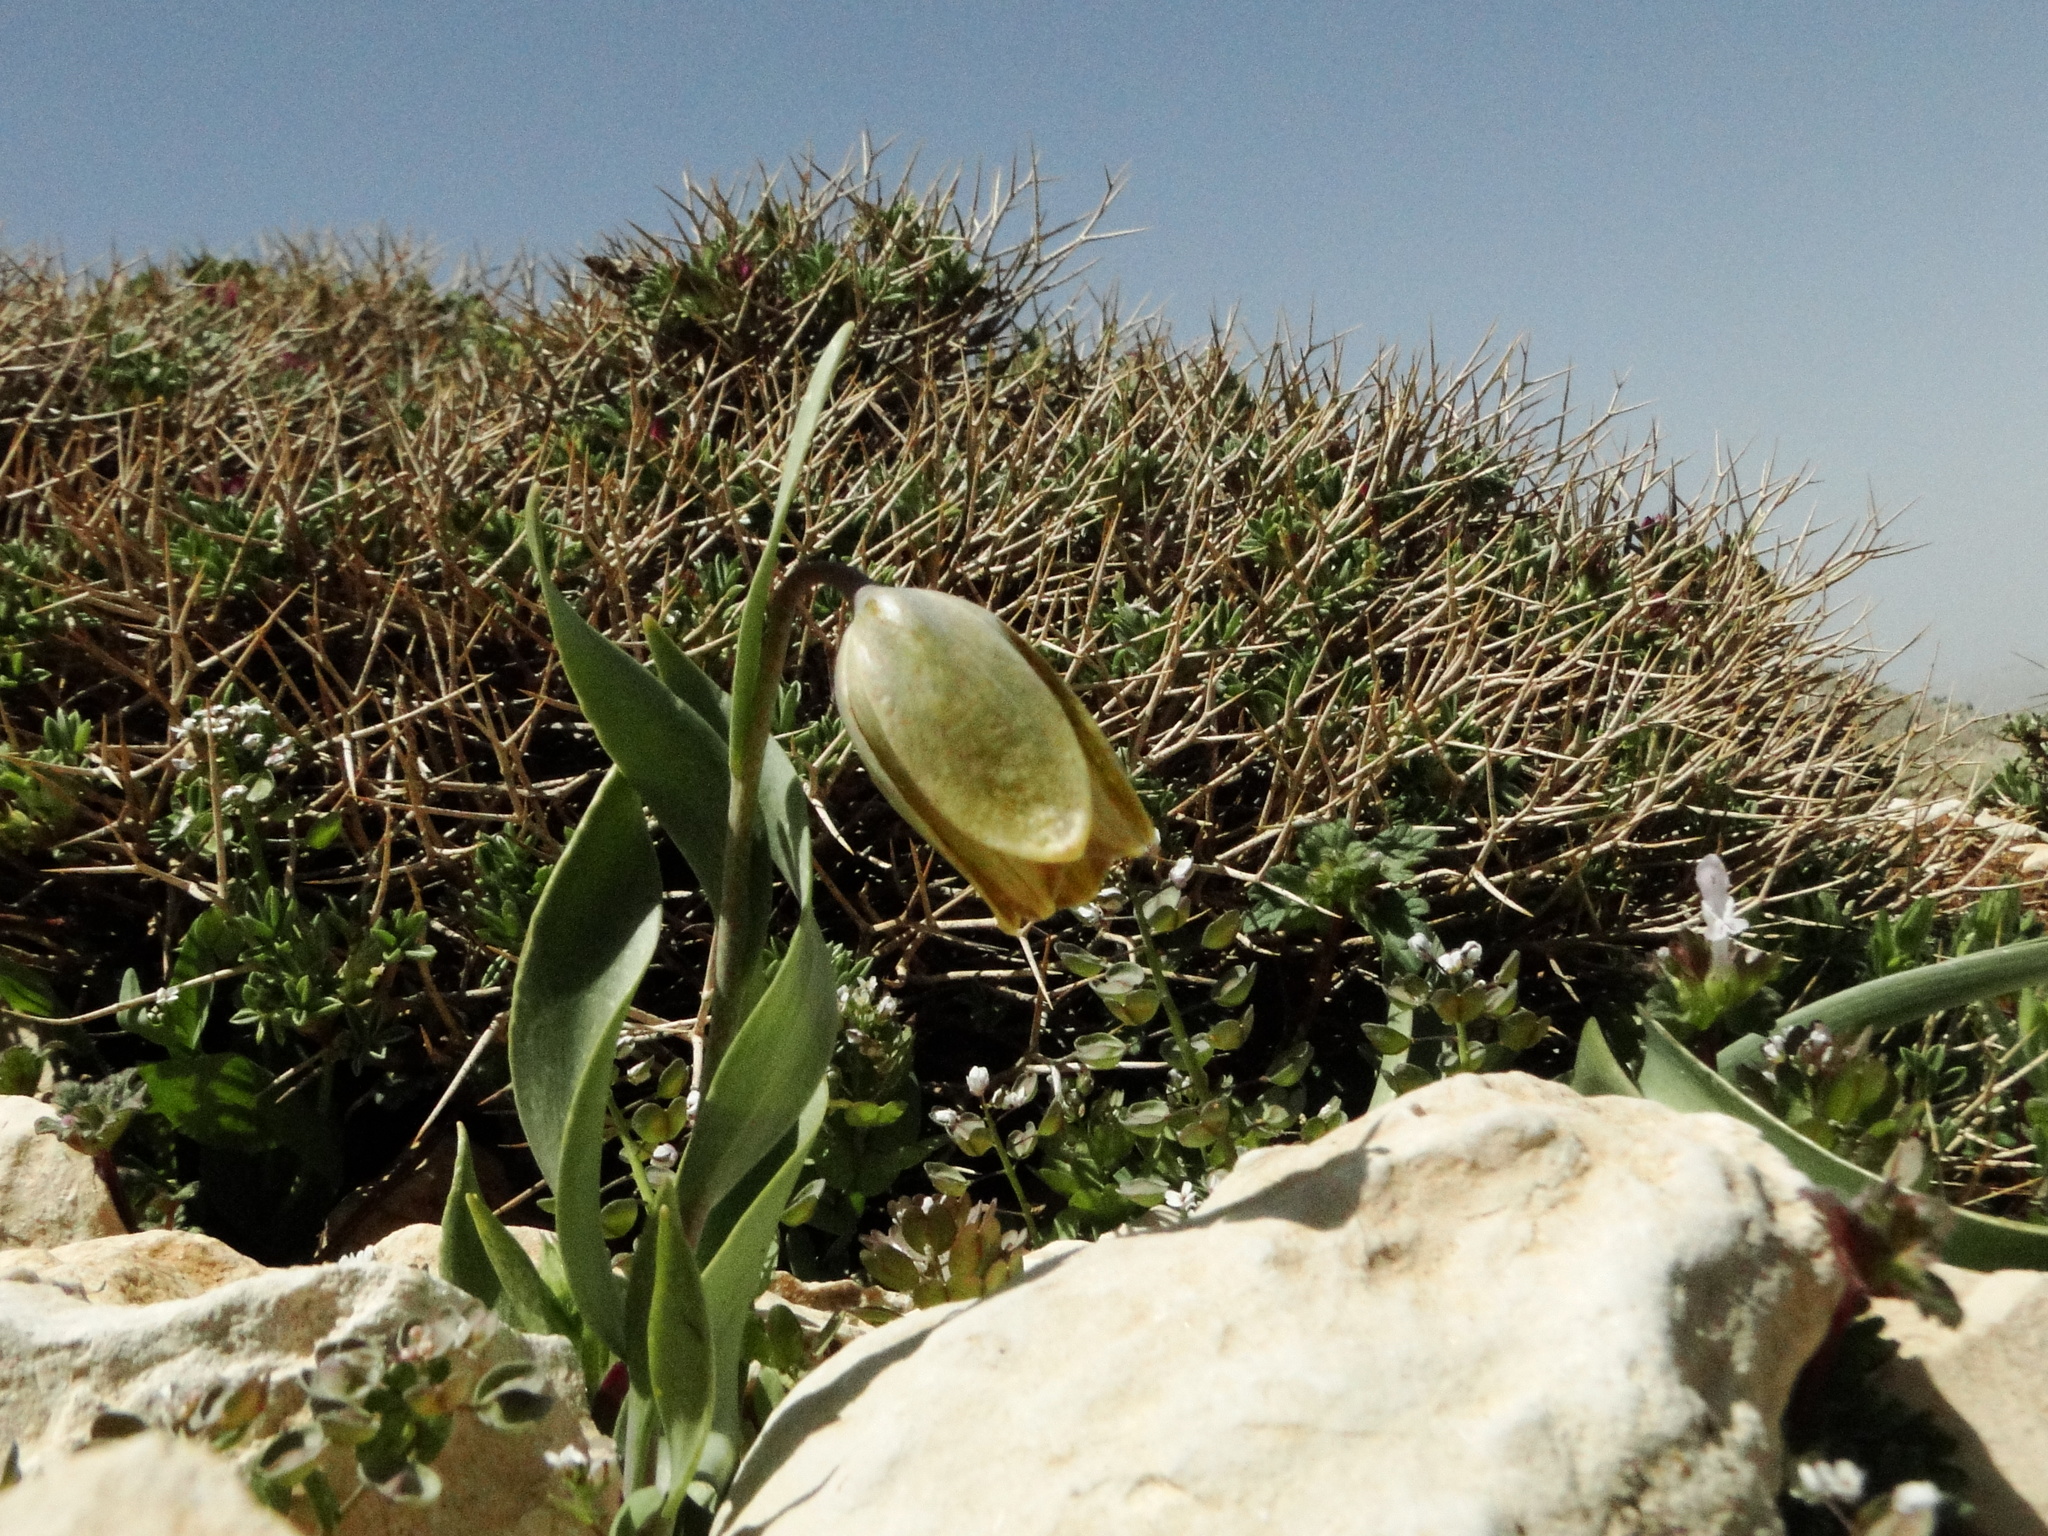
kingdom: Plantae
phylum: Tracheophyta
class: Liliopsida
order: Liliales
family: Liliaceae
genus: Fritillaria
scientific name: Fritillaria amana
